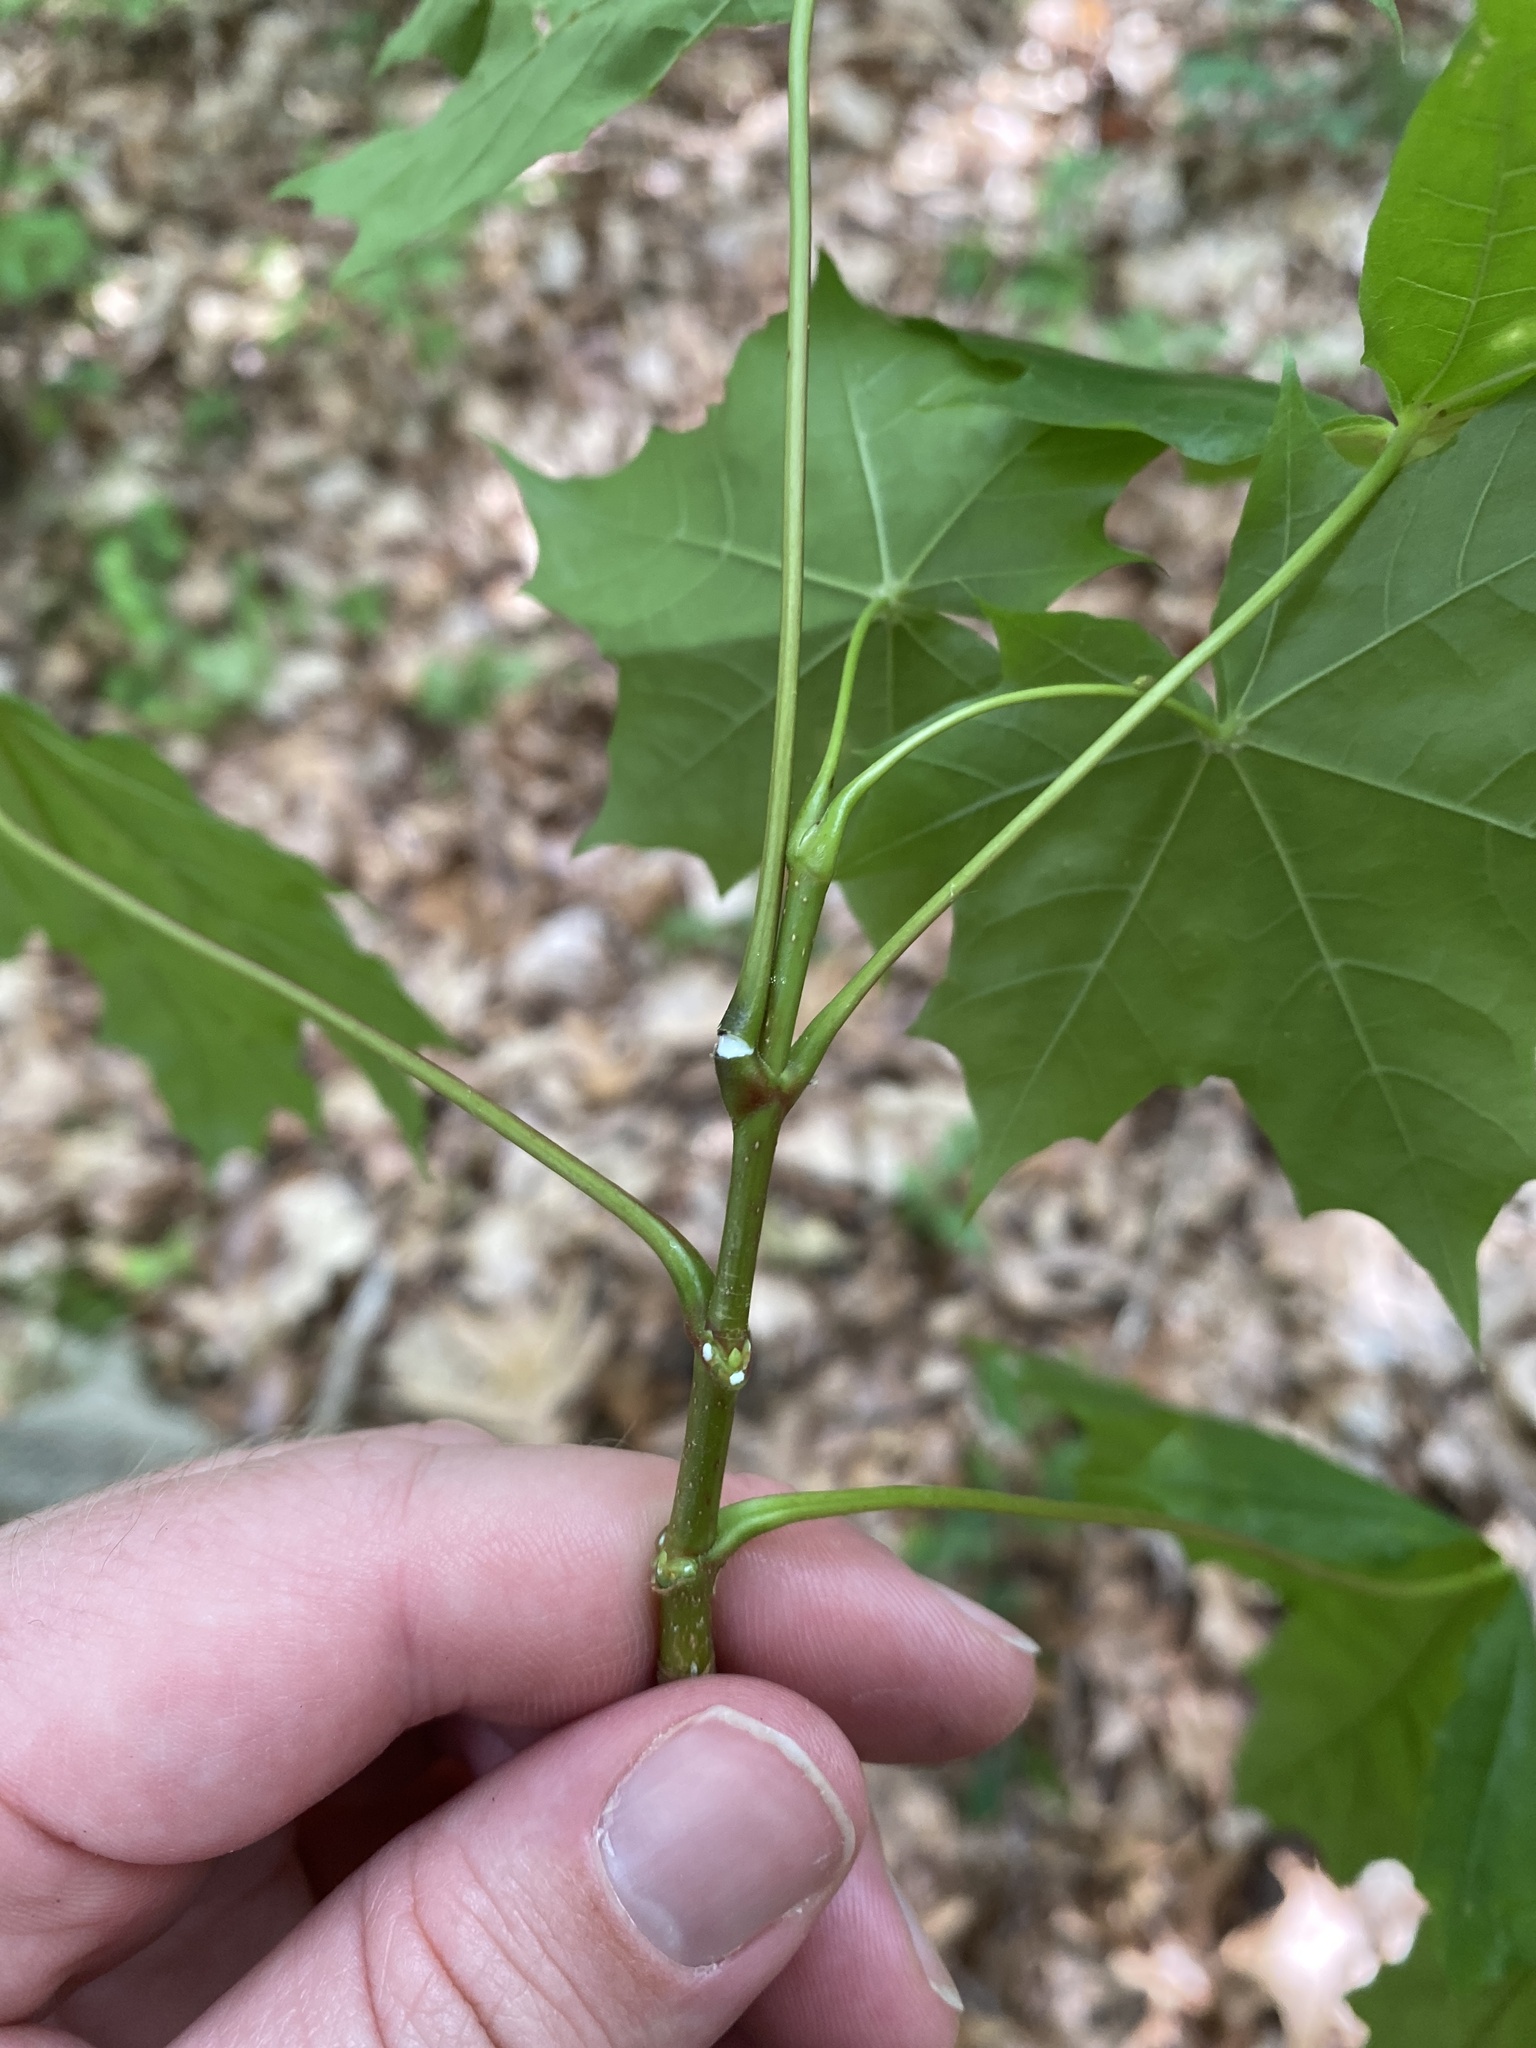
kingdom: Plantae
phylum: Tracheophyta
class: Magnoliopsida
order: Sapindales
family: Sapindaceae
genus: Acer
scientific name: Acer platanoides
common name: Norway maple
